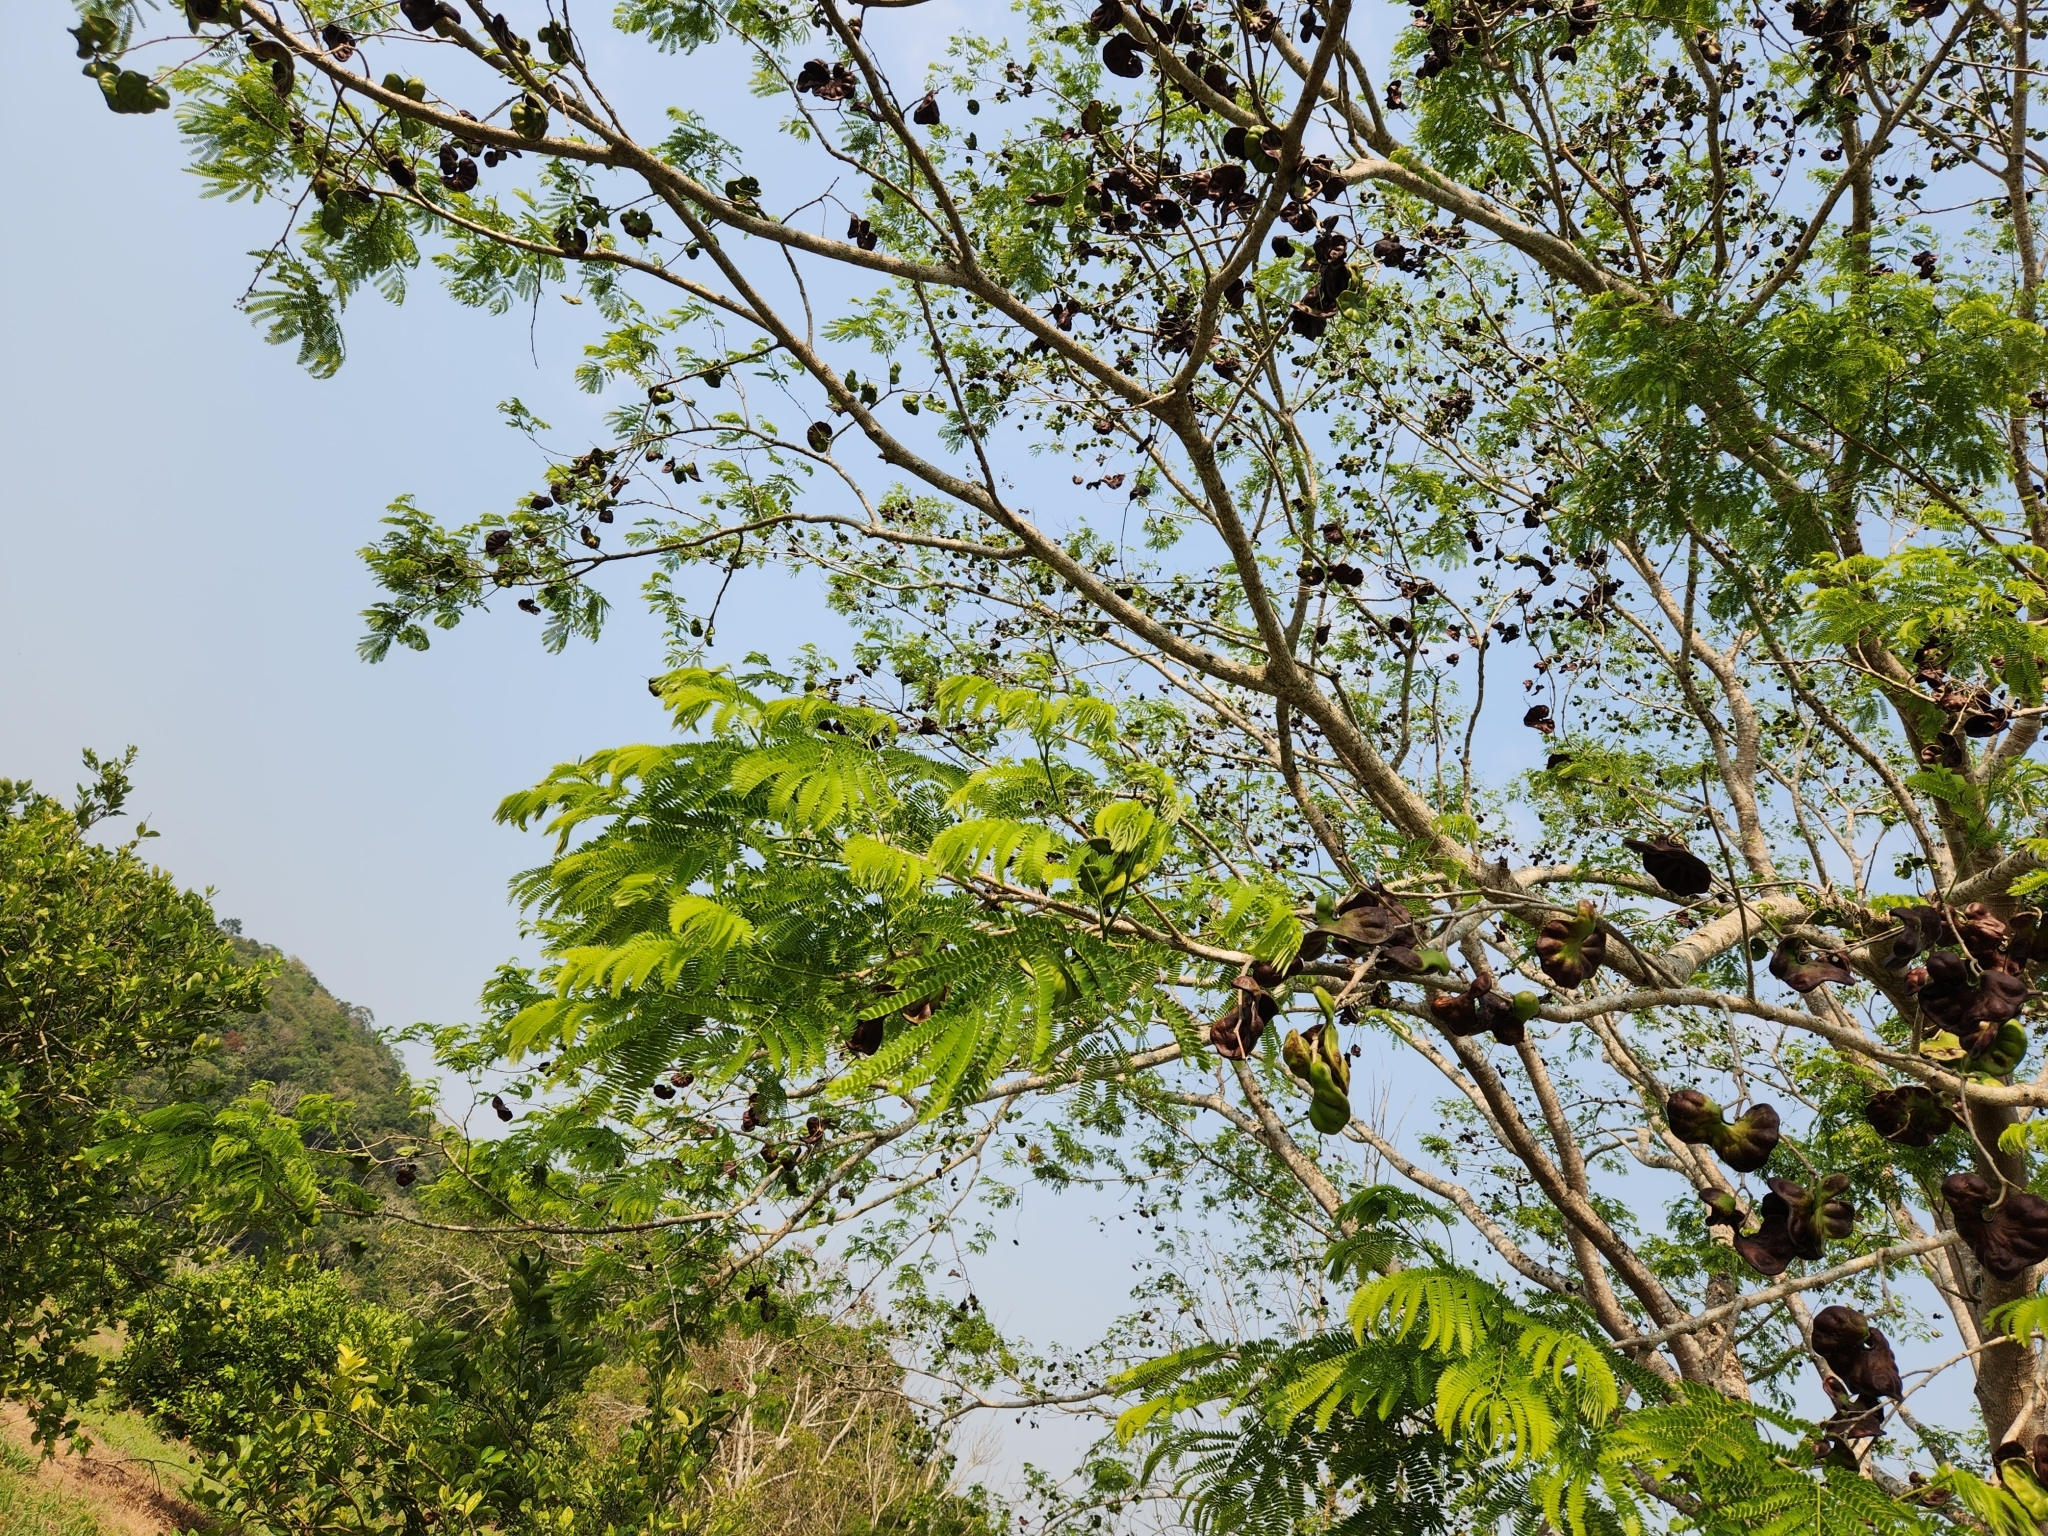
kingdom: Plantae
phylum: Tracheophyta
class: Magnoliopsida
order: Fabales
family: Fabaceae
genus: Enterolobium
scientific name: Enterolobium cyclocarpum
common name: Ear tree
